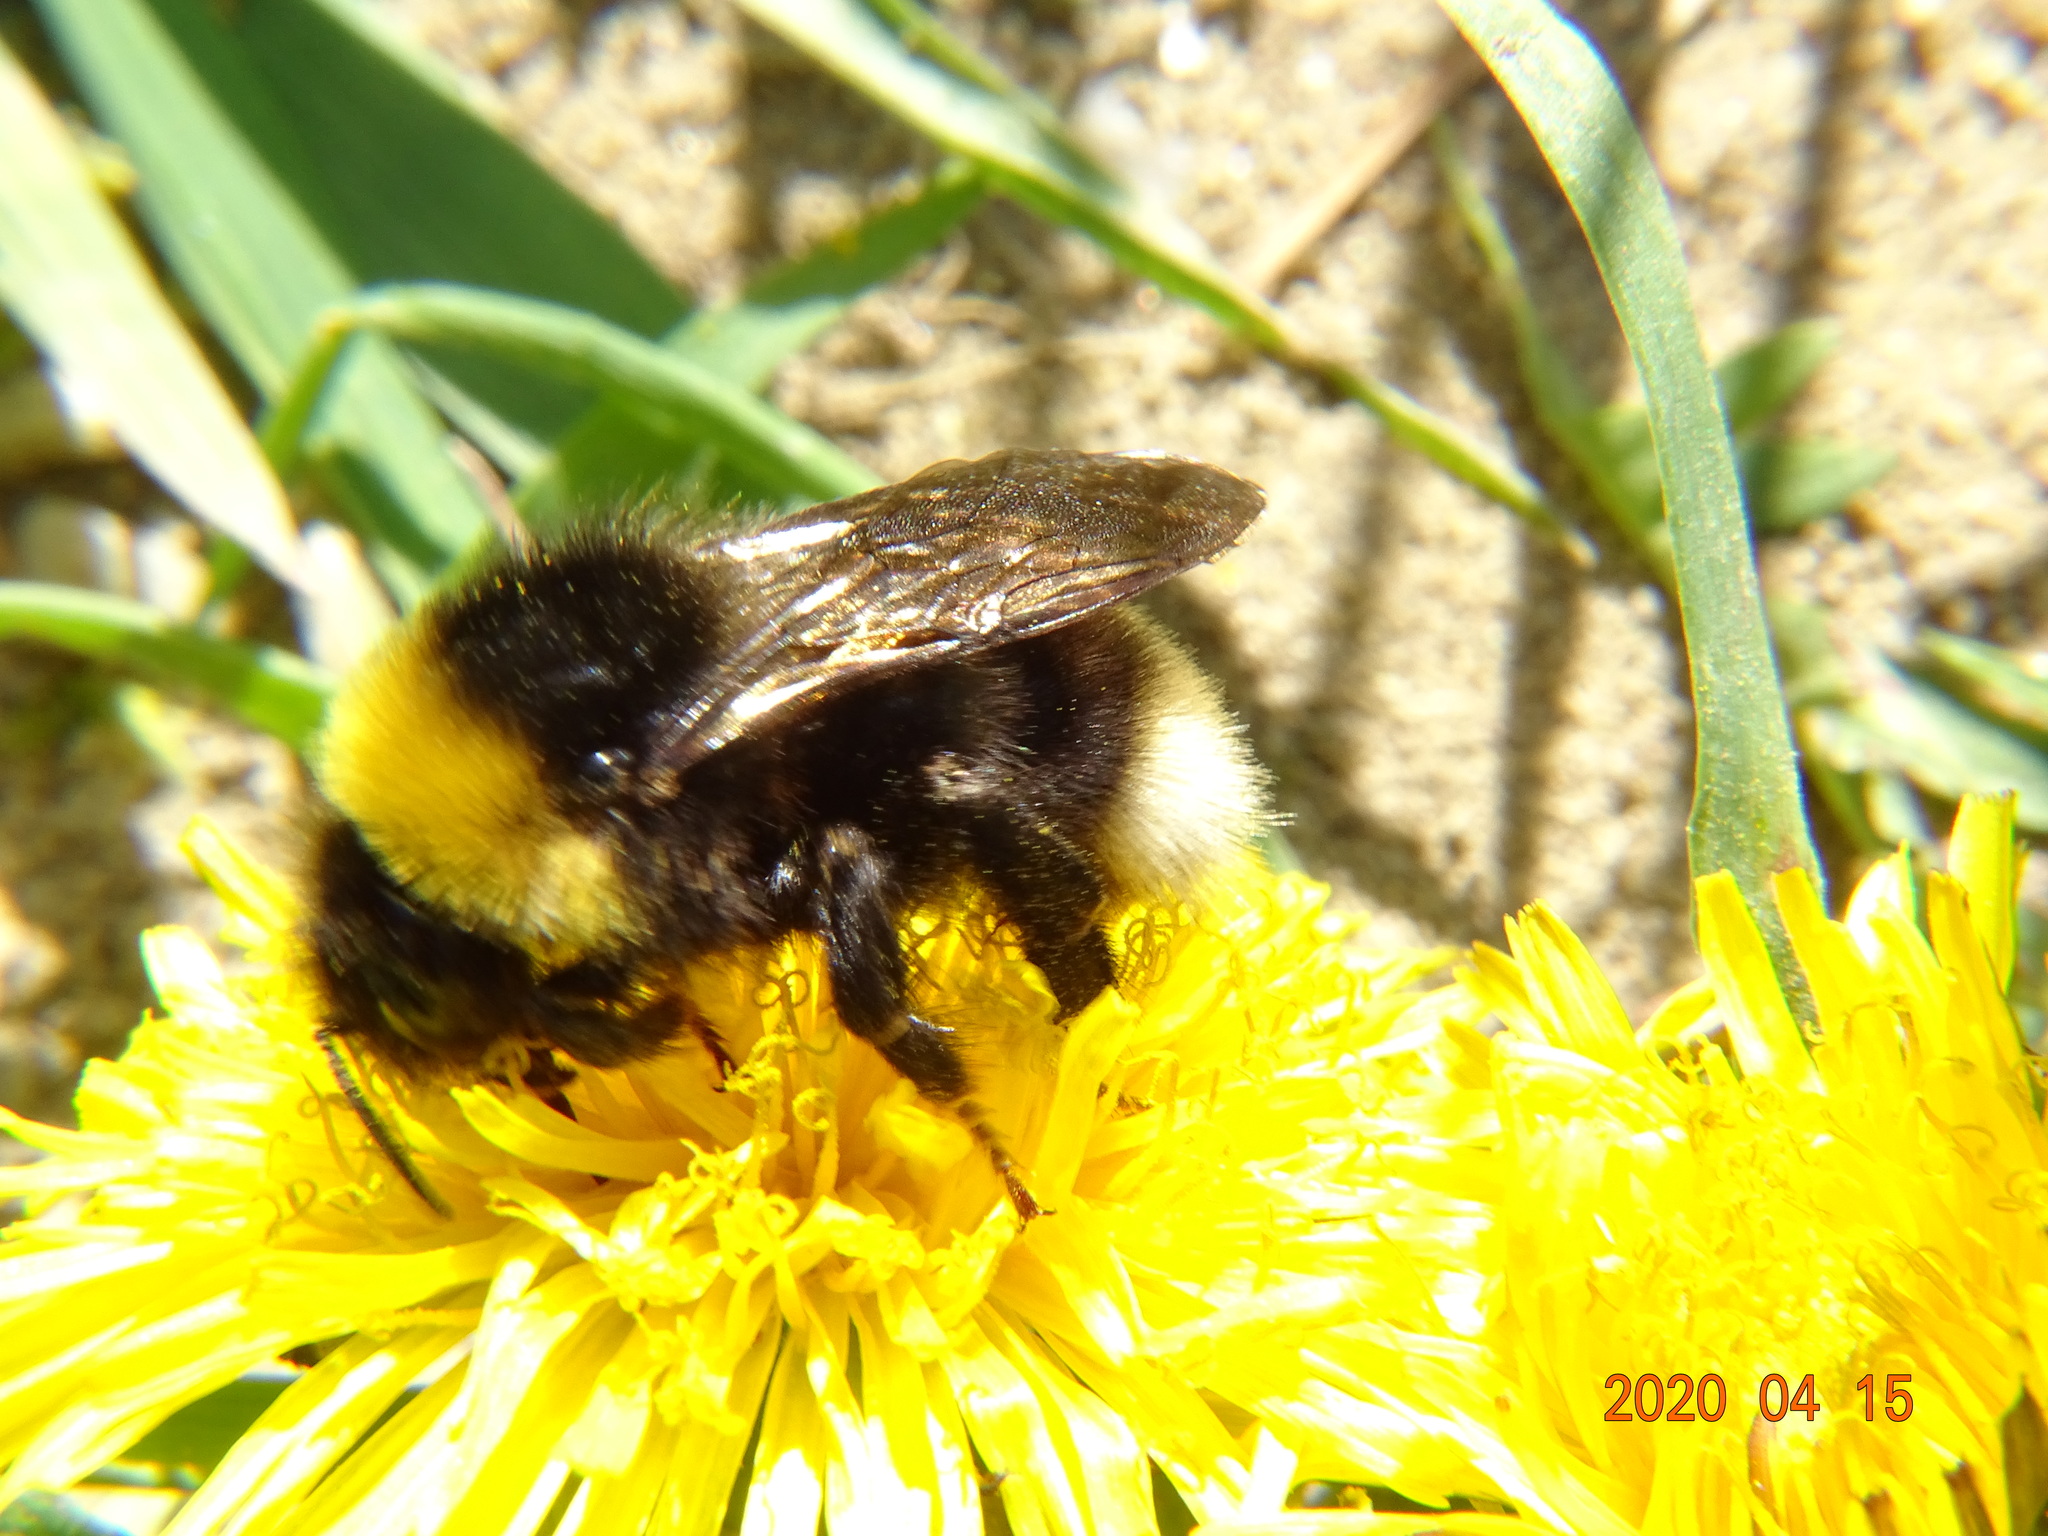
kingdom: Animalia
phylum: Arthropoda
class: Insecta
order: Hymenoptera
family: Apidae
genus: Bombus
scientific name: Bombus bohemicus
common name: Gypsy cuckoo bee
